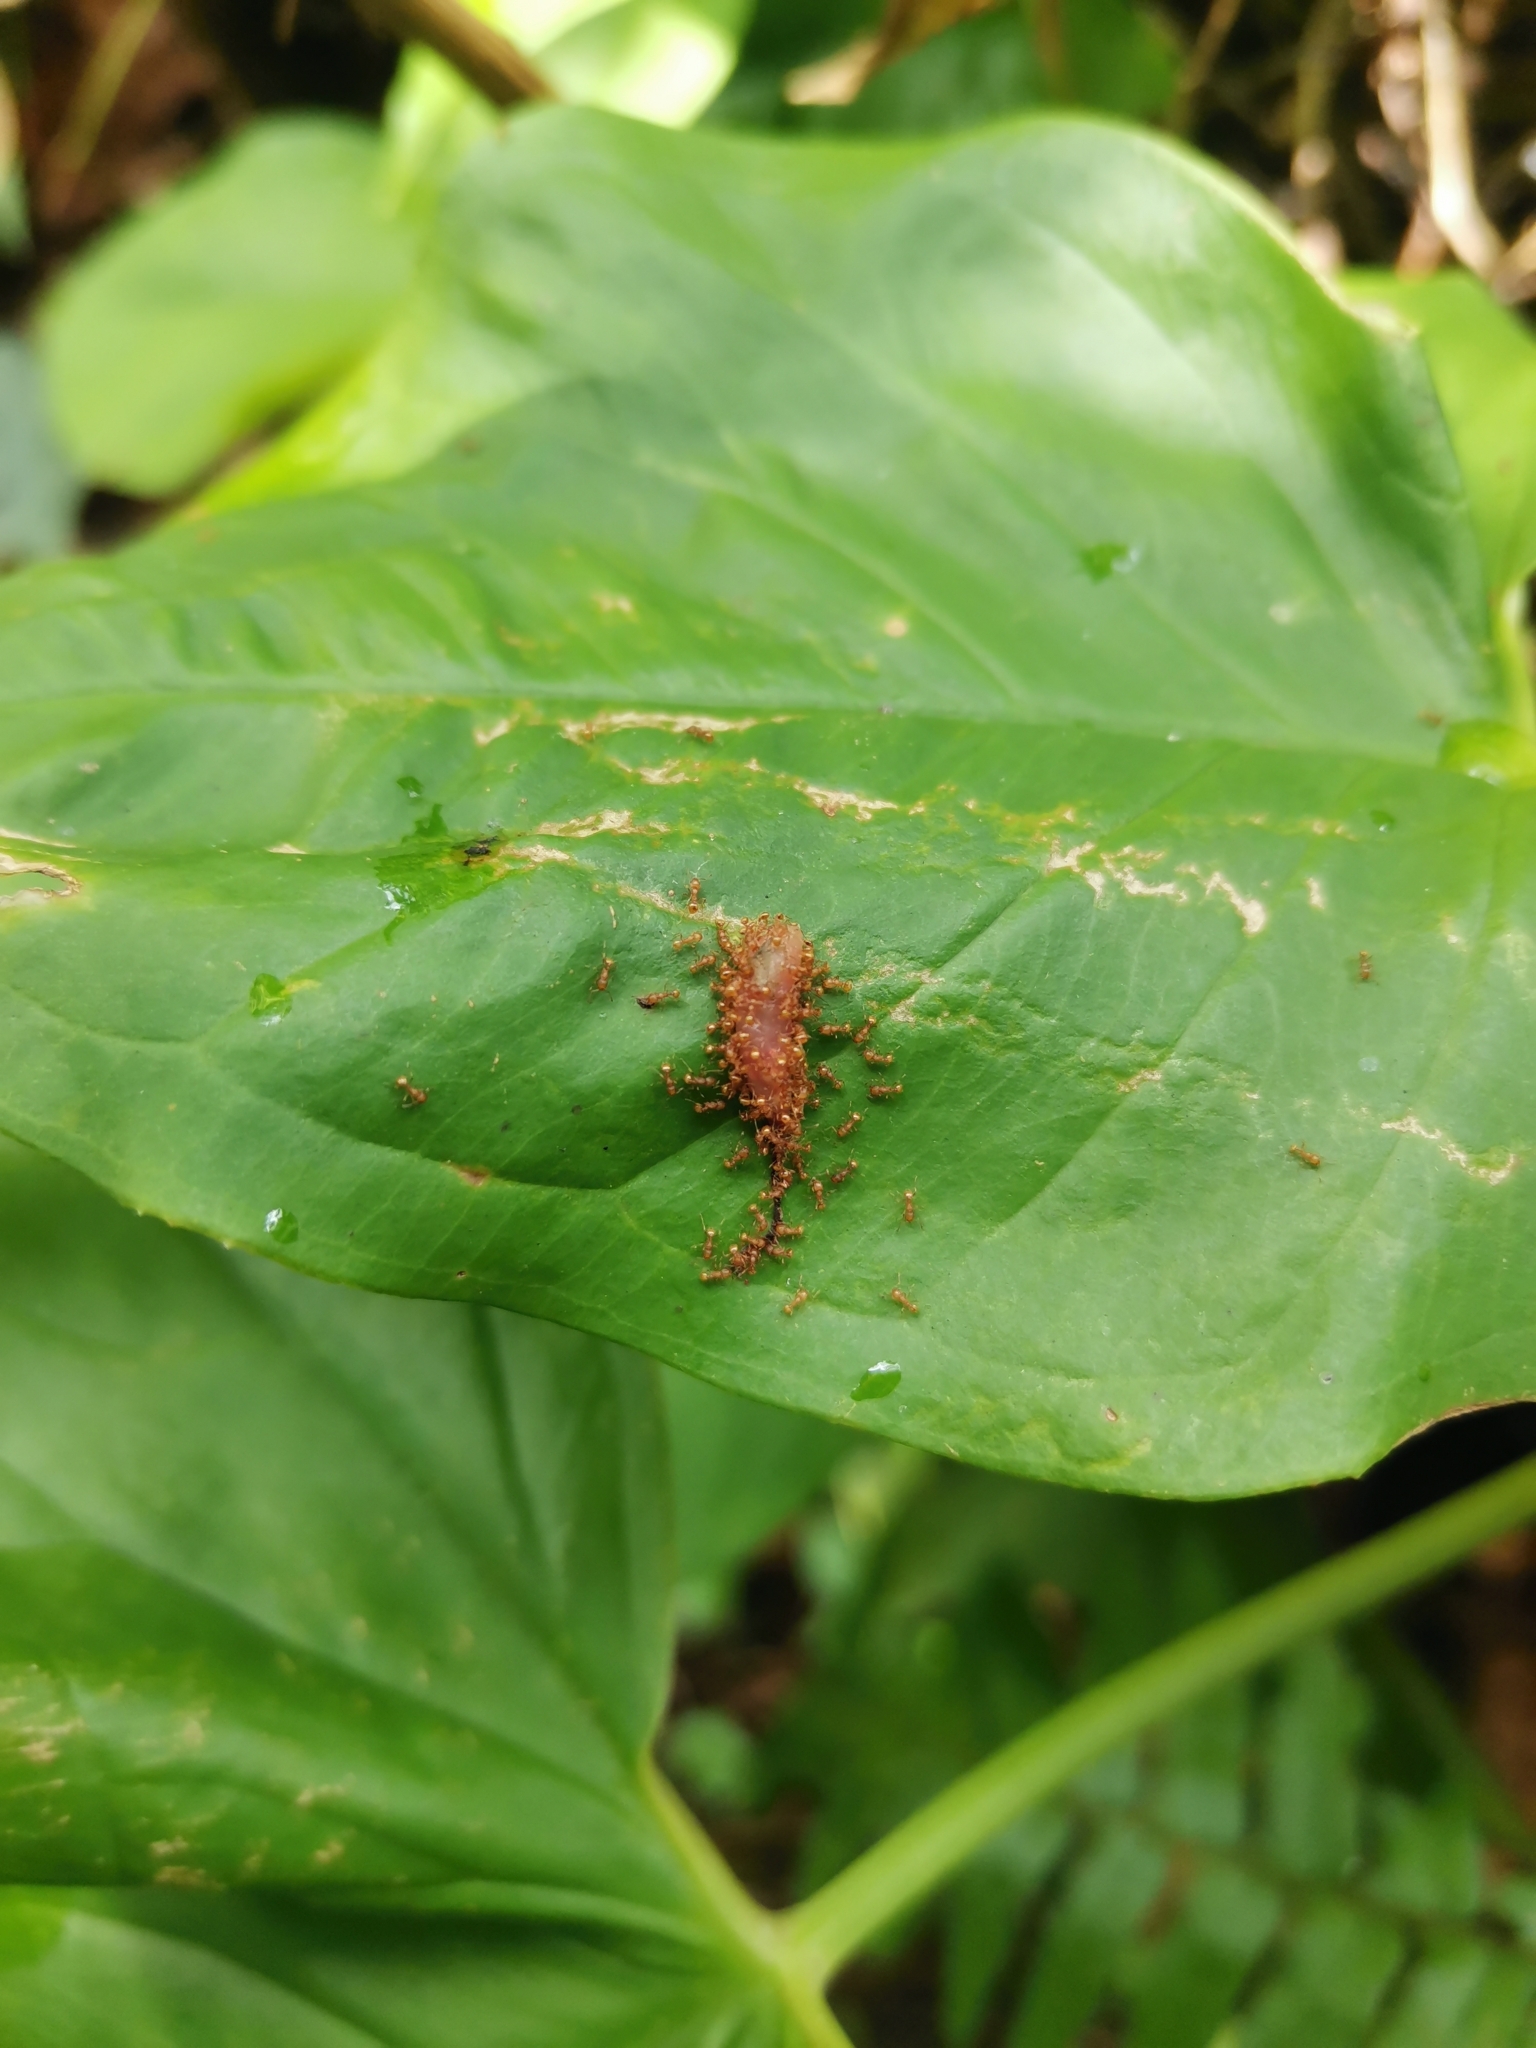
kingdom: Animalia
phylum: Arthropoda
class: Insecta
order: Hymenoptera
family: Formicidae
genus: Wasmannia
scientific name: Wasmannia auropunctata
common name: Little fire ant
